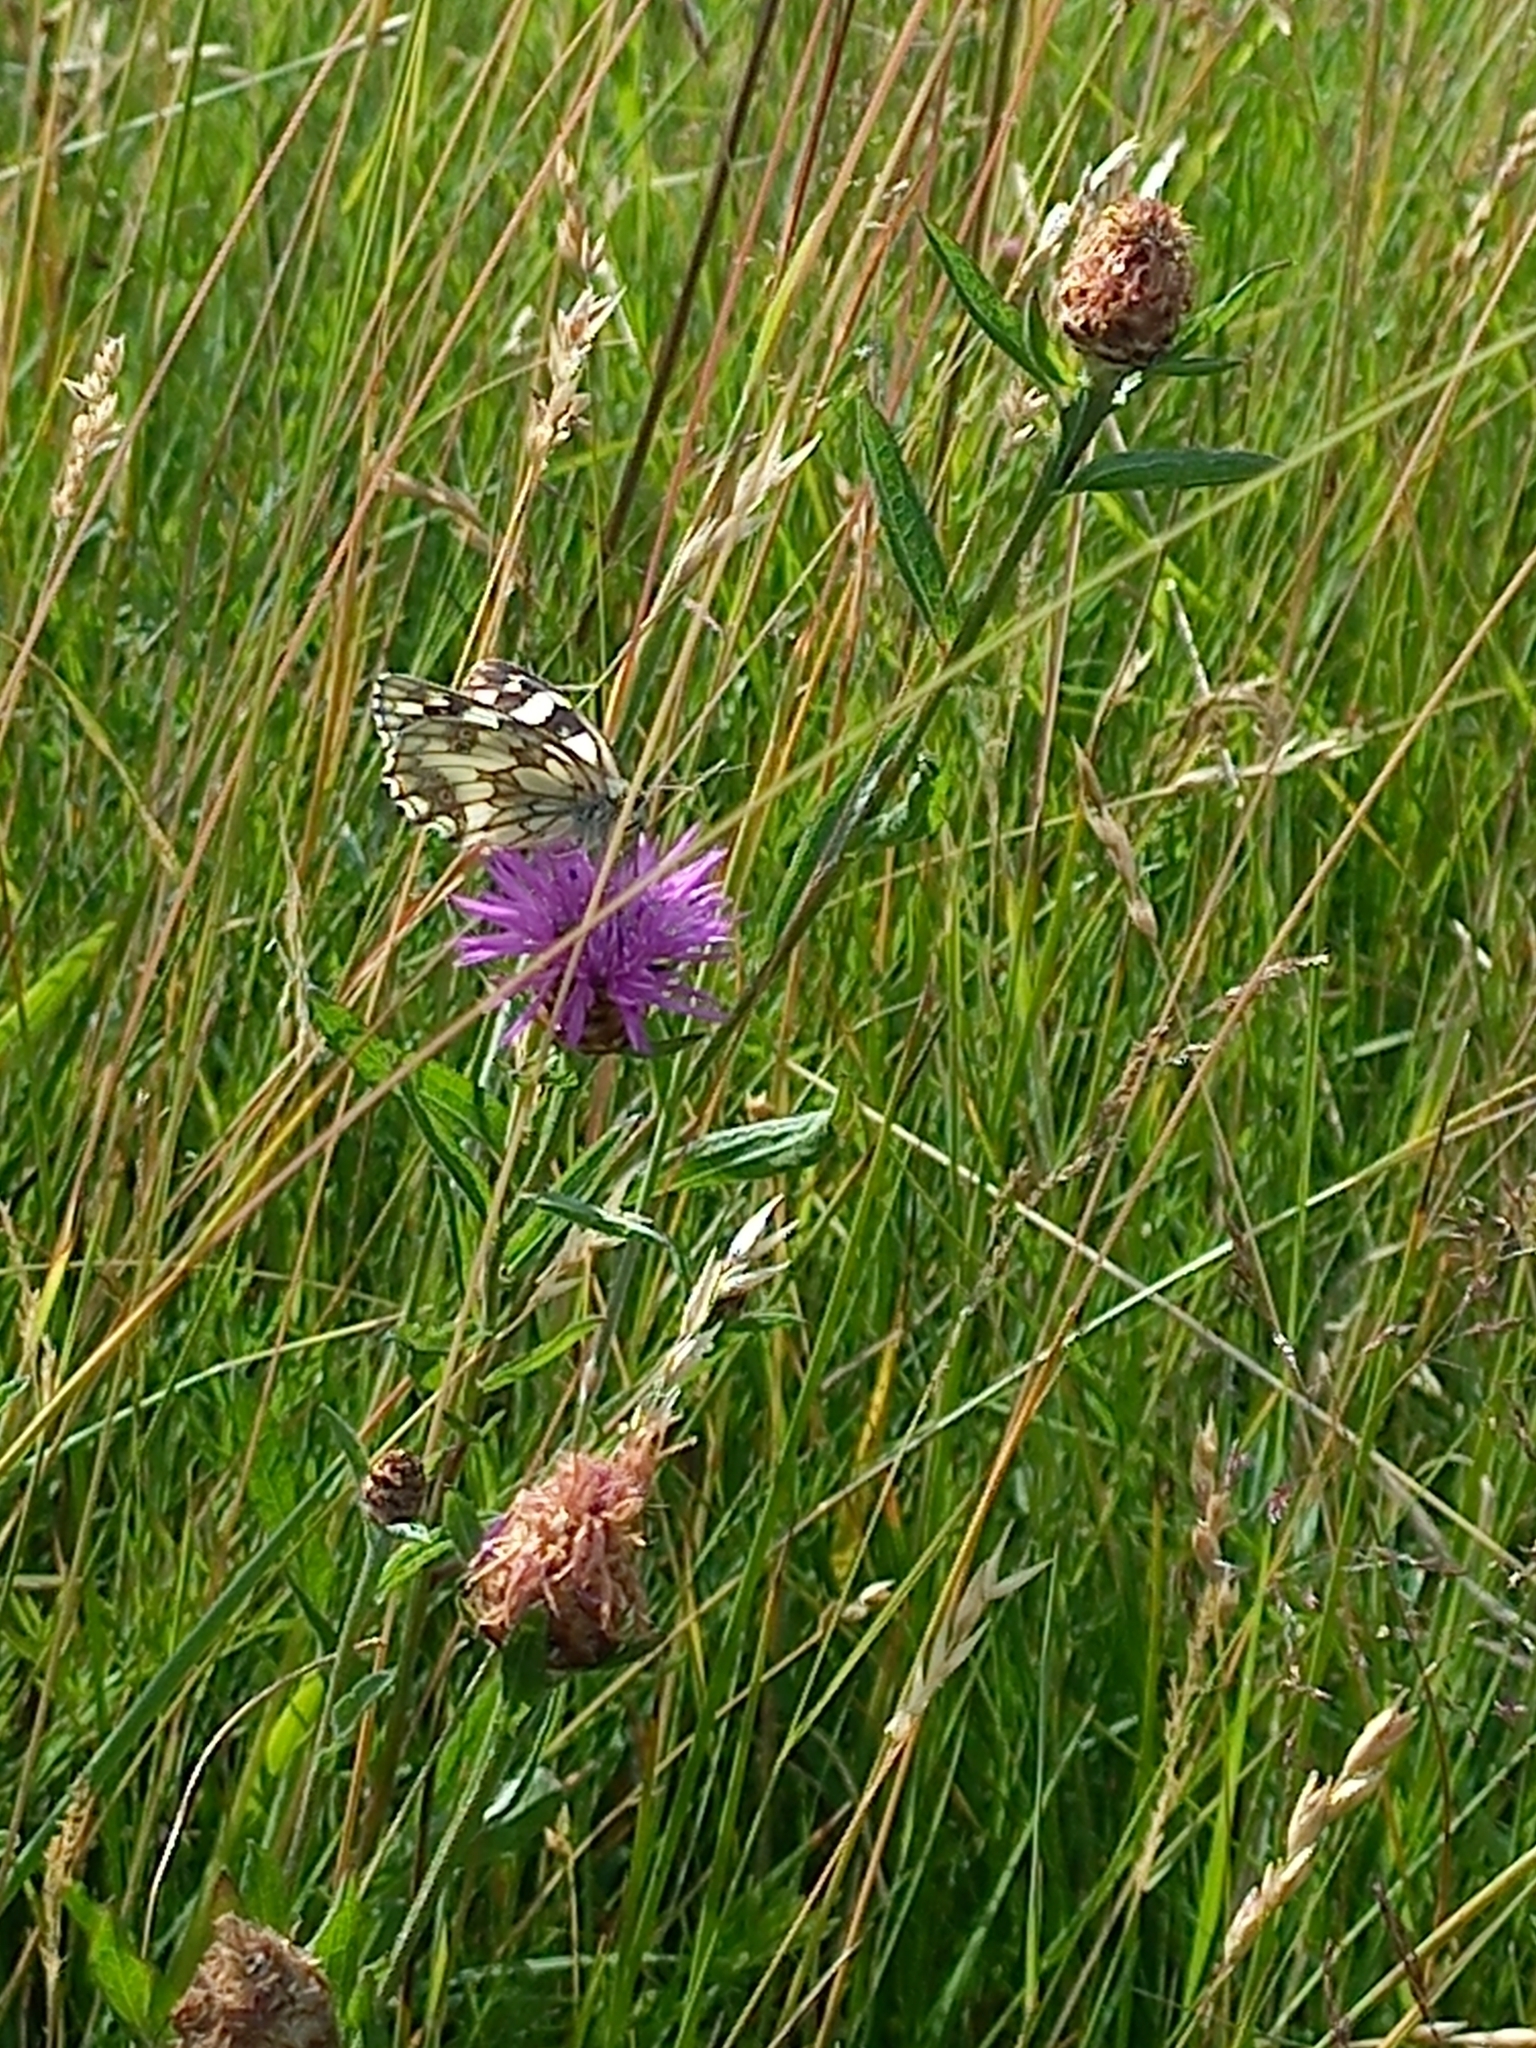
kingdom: Animalia
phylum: Arthropoda
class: Insecta
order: Lepidoptera
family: Nymphalidae
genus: Melanargia
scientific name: Melanargia galathea
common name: Marbled white
